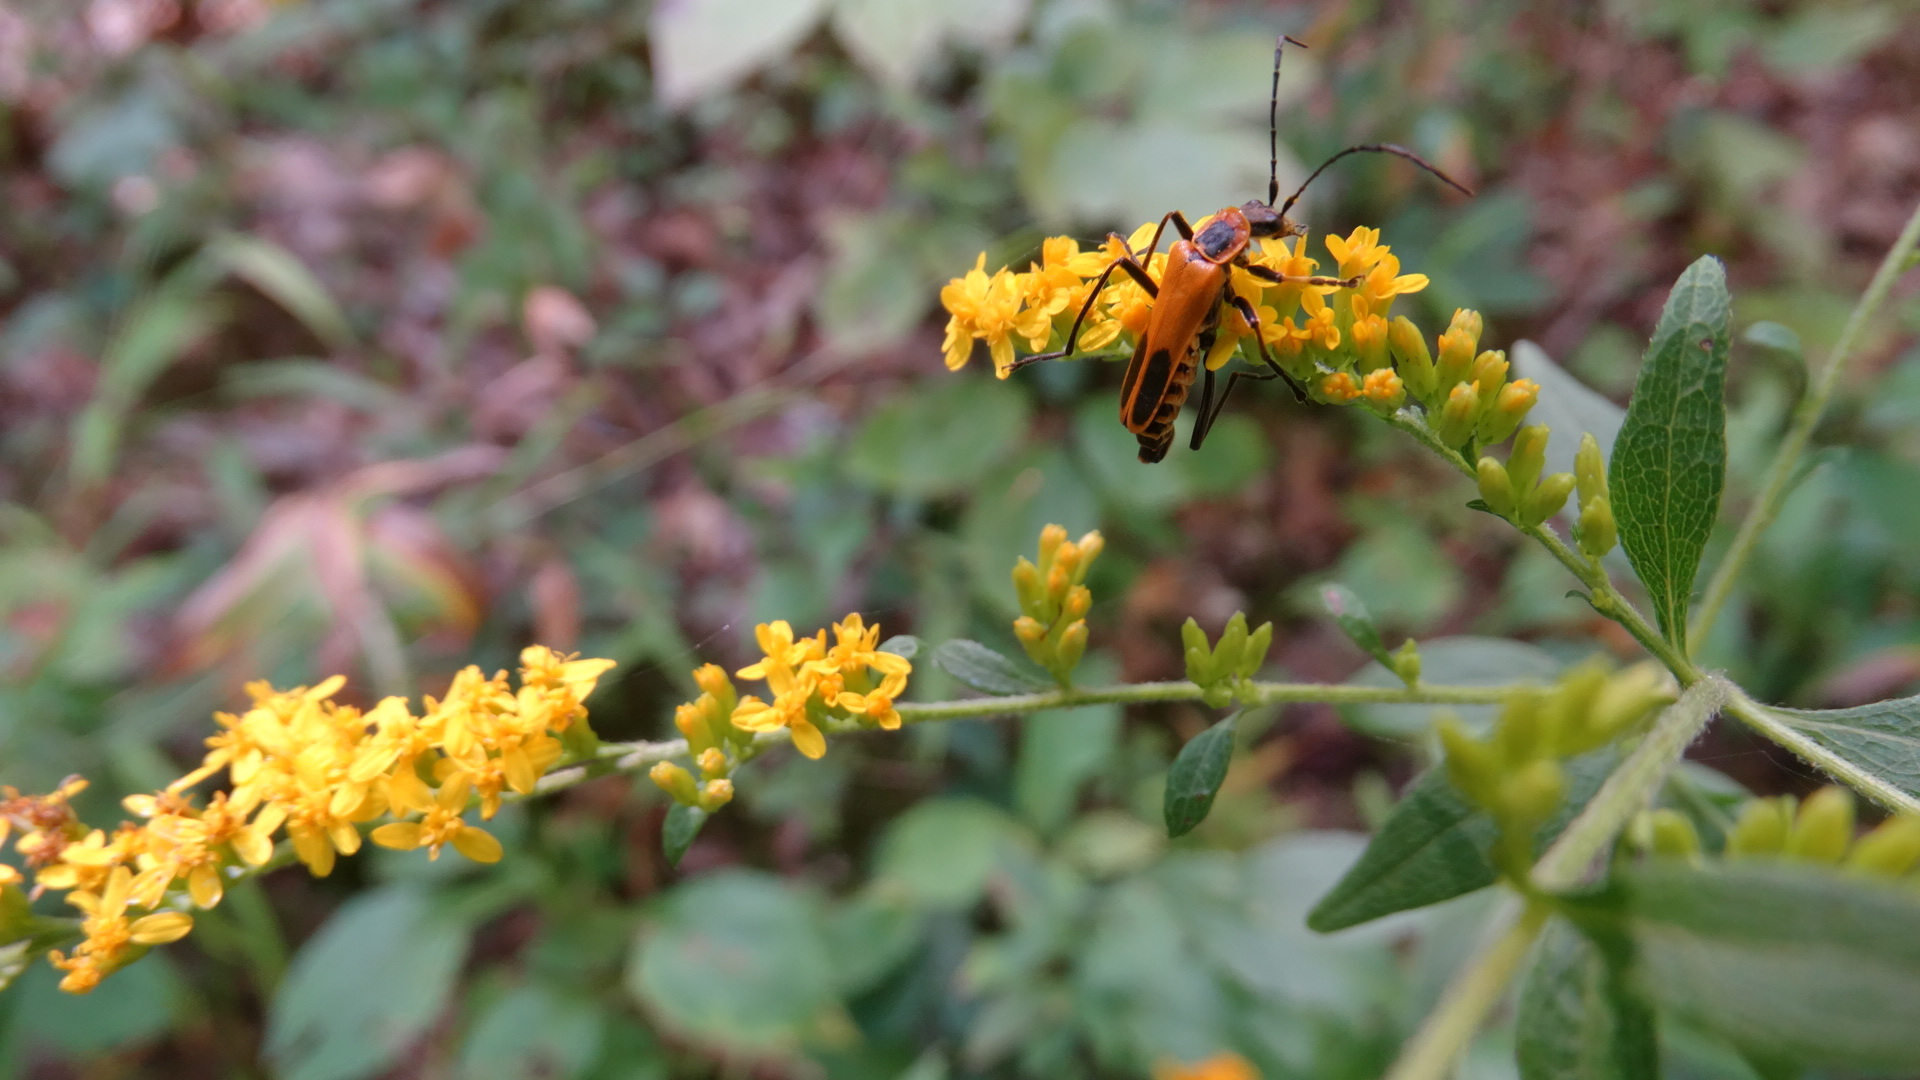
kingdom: Animalia
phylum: Arthropoda
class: Insecta
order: Coleoptera
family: Cantharidae
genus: Chauliognathus
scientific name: Chauliognathus pensylvanicus
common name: Goldenrod soldier beetle
